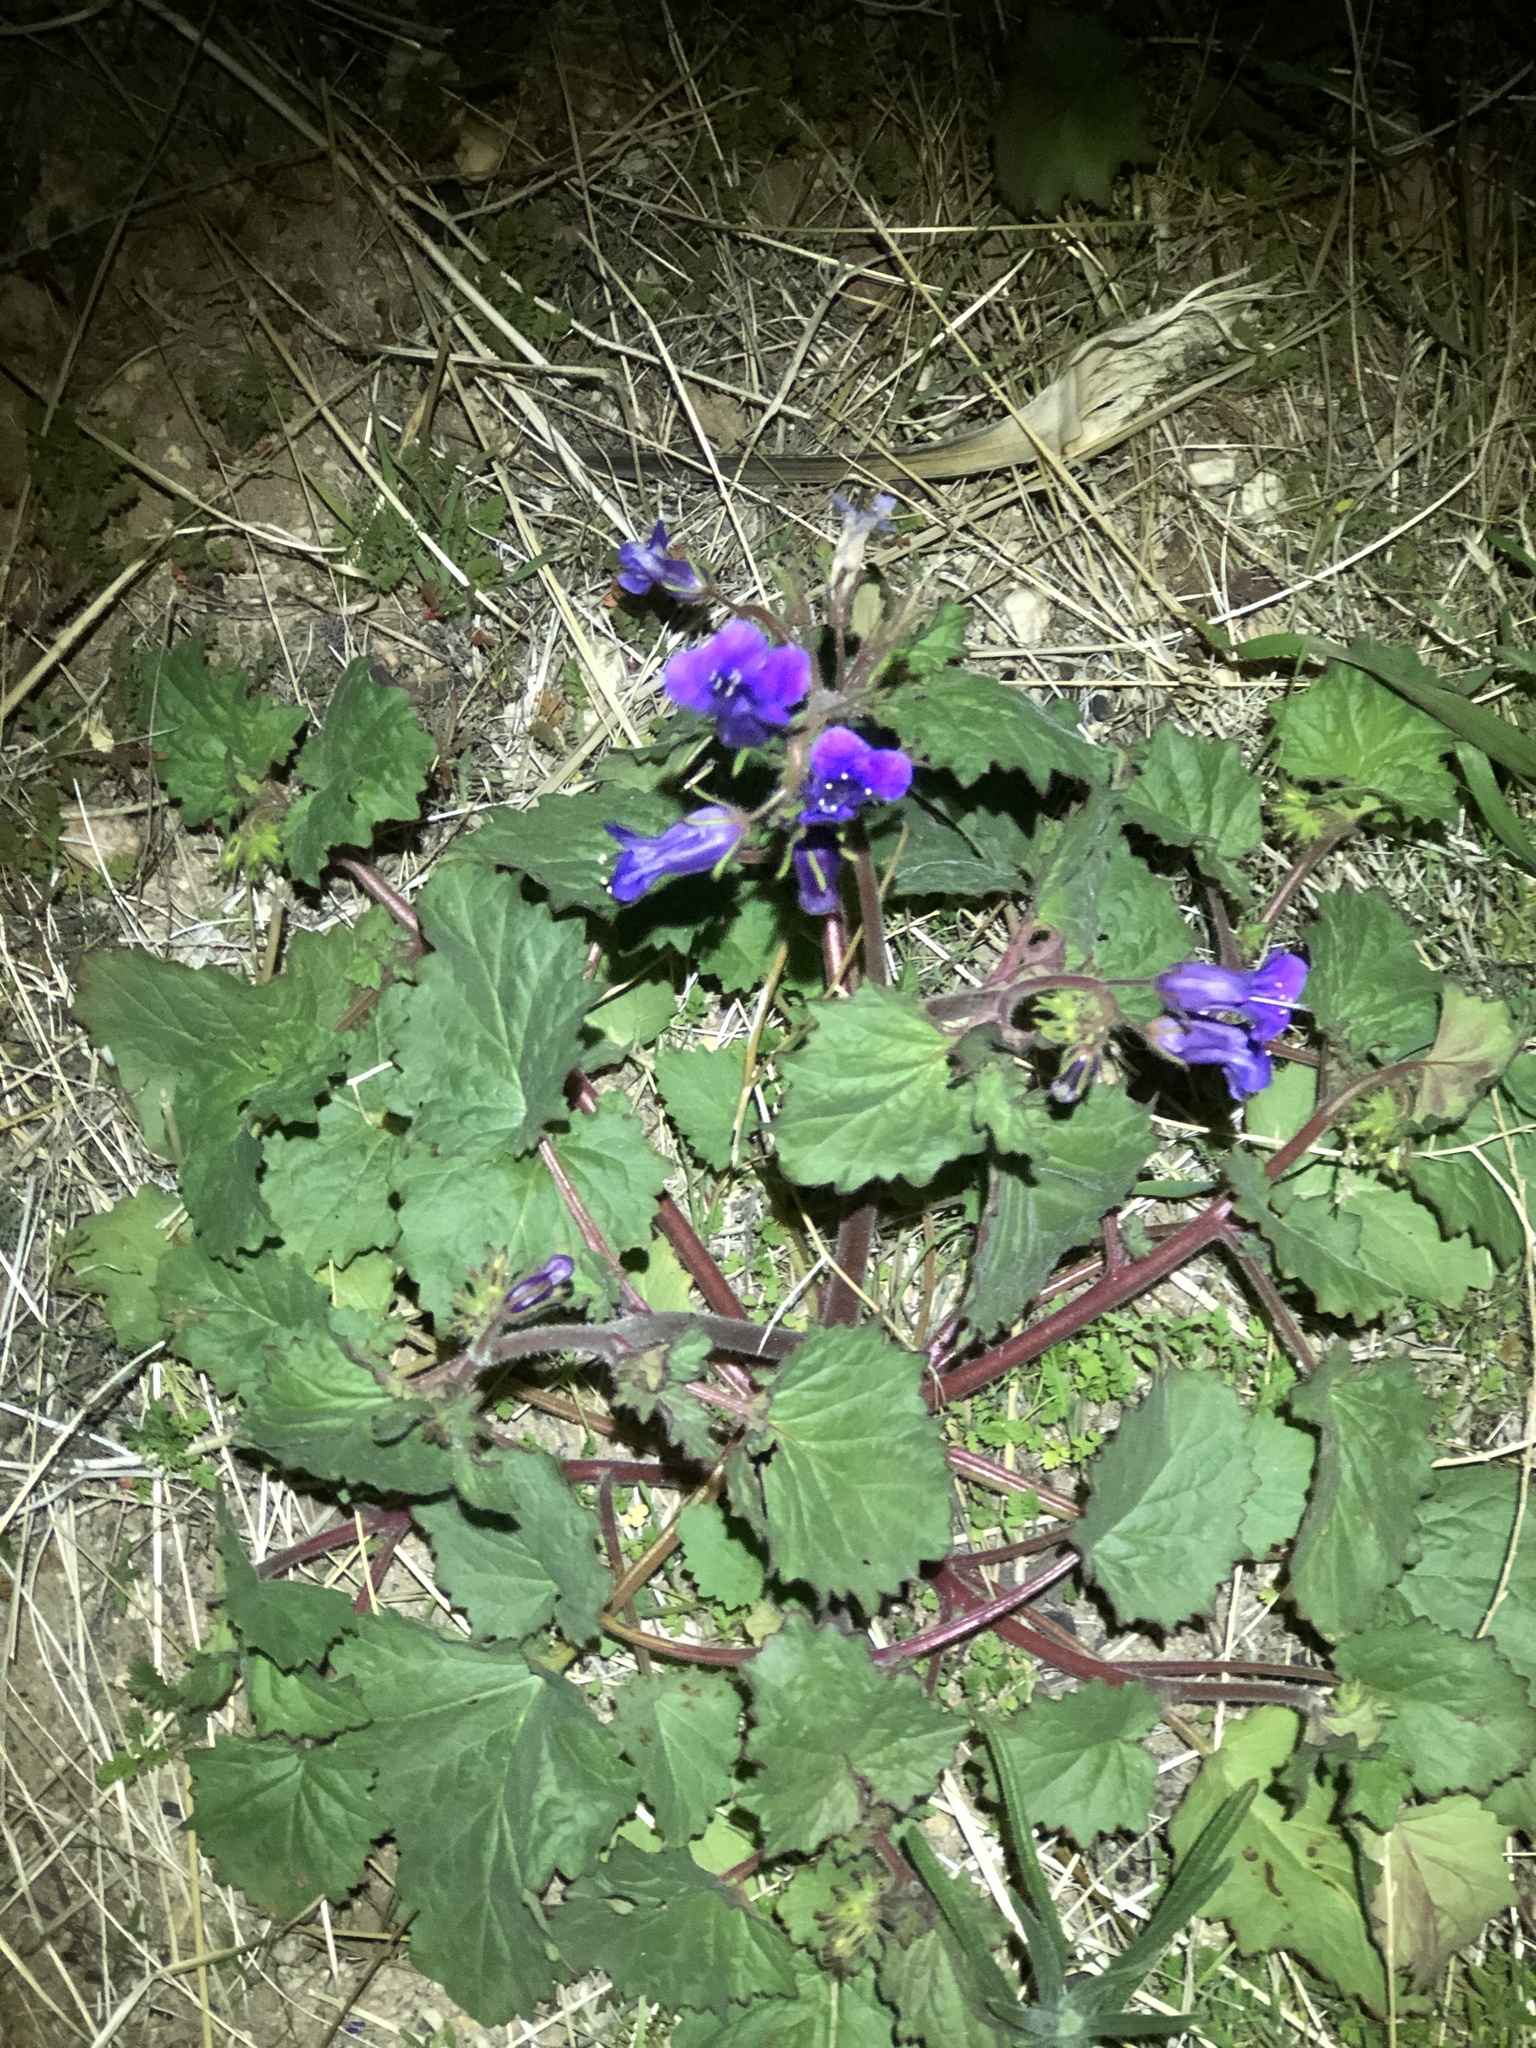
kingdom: Plantae
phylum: Tracheophyta
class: Magnoliopsida
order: Boraginales
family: Hydrophyllaceae
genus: Phacelia
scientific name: Phacelia minor
